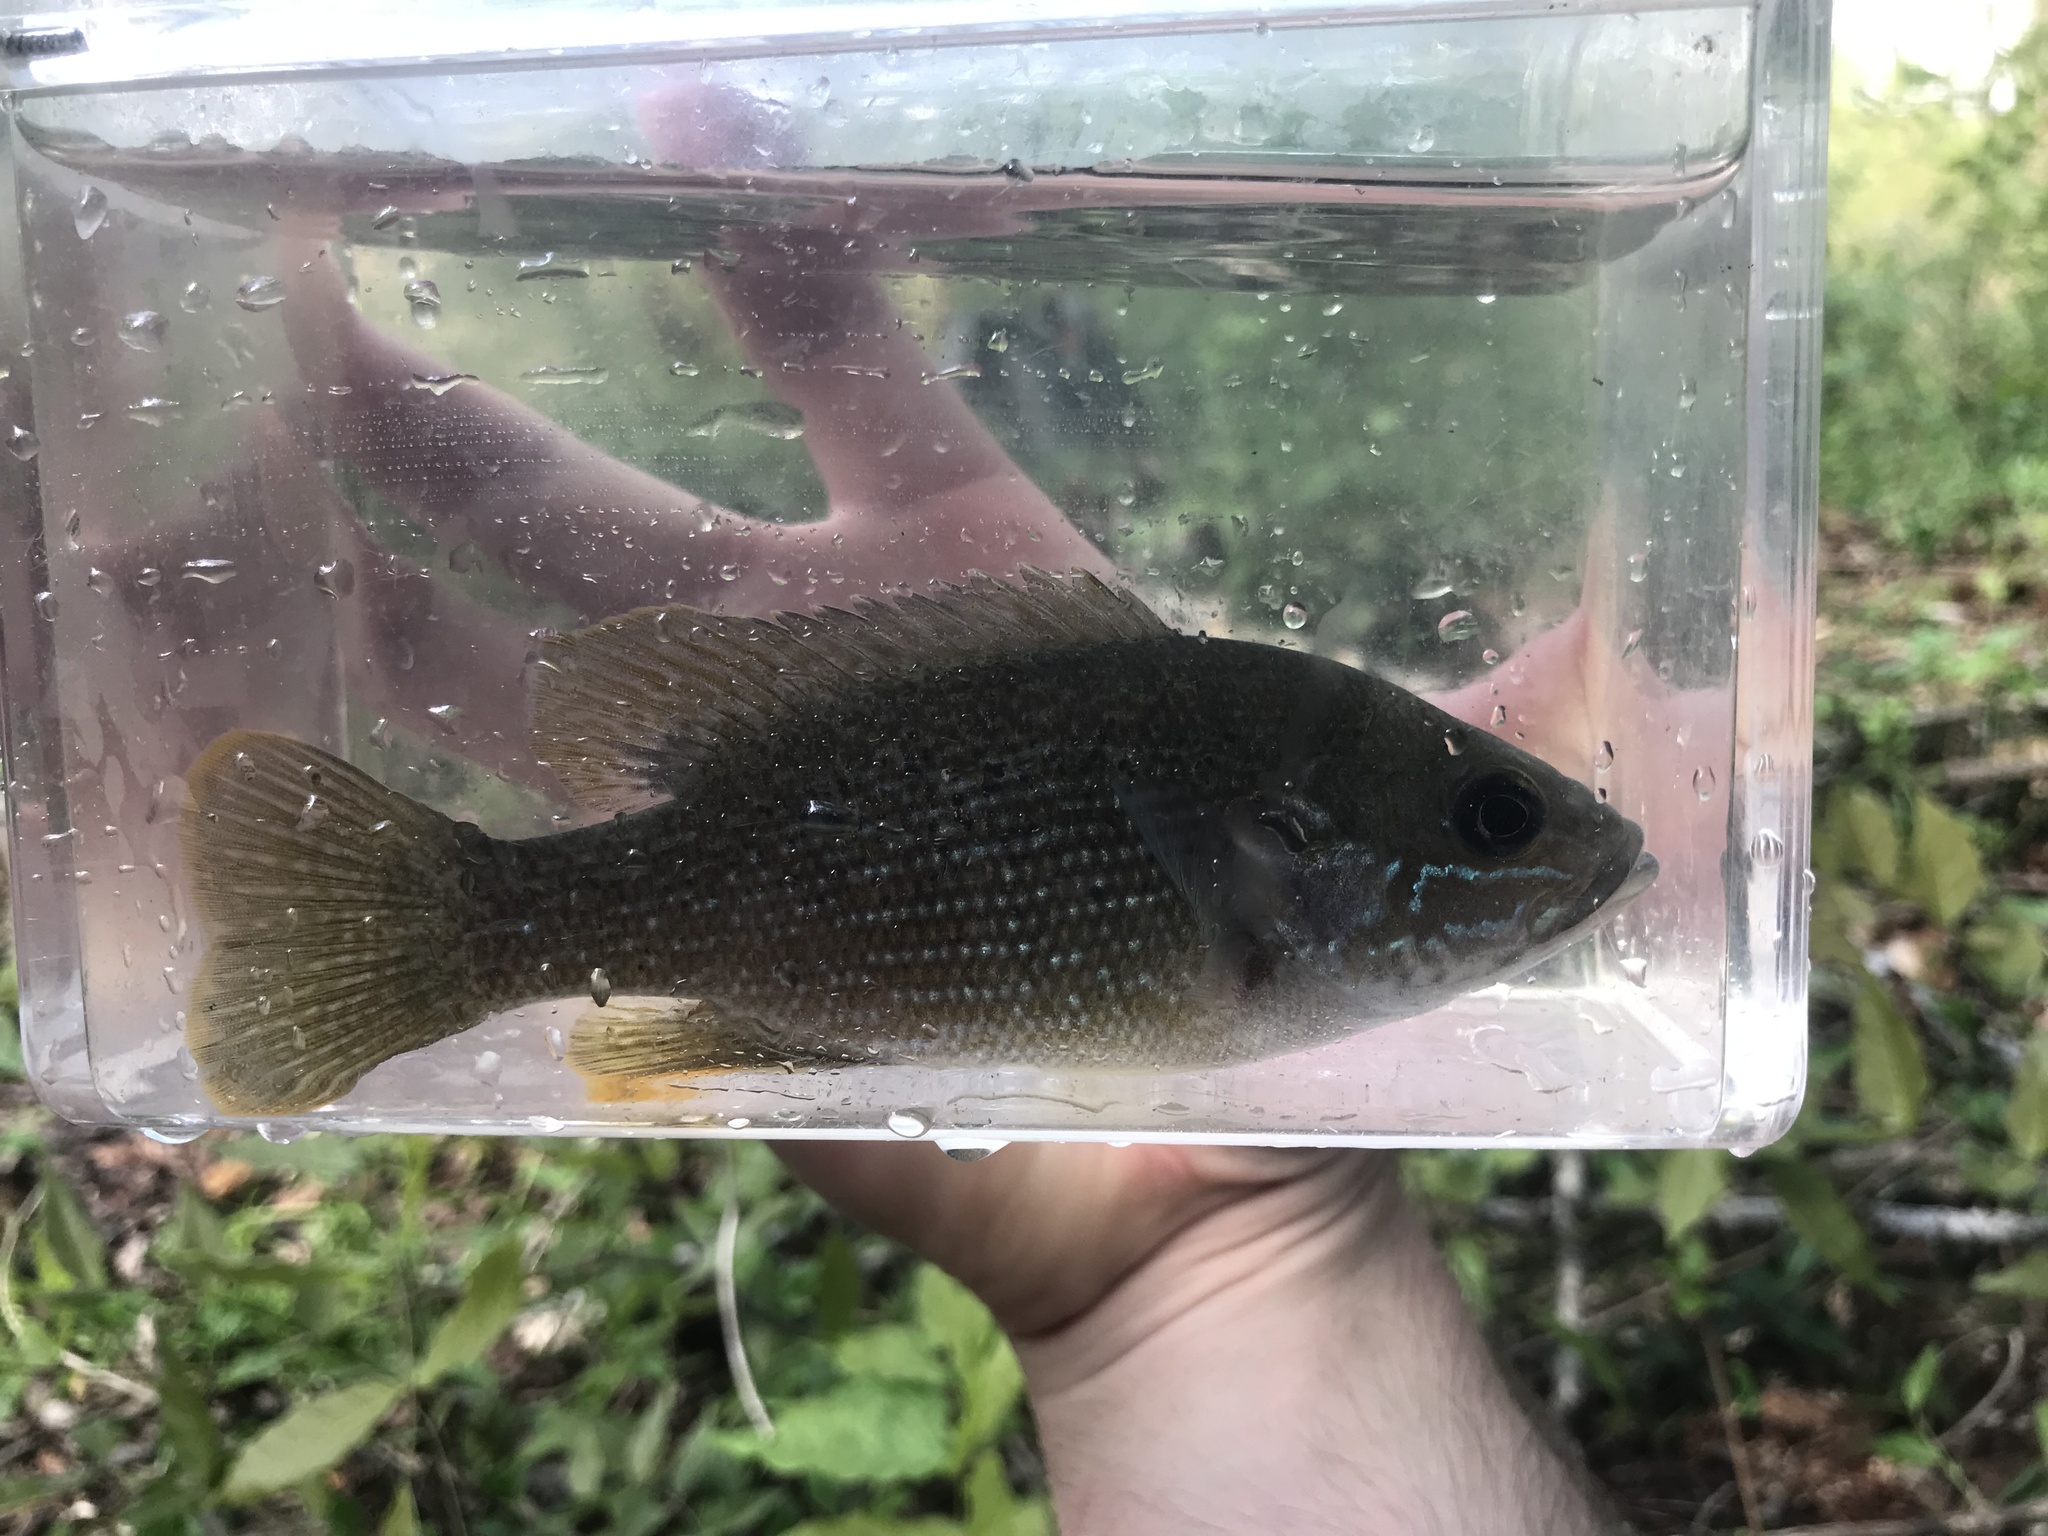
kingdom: Animalia
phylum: Chordata
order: Perciformes
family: Centrarchidae
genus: Lepomis
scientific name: Lepomis cyanellus
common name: Green sunfish
